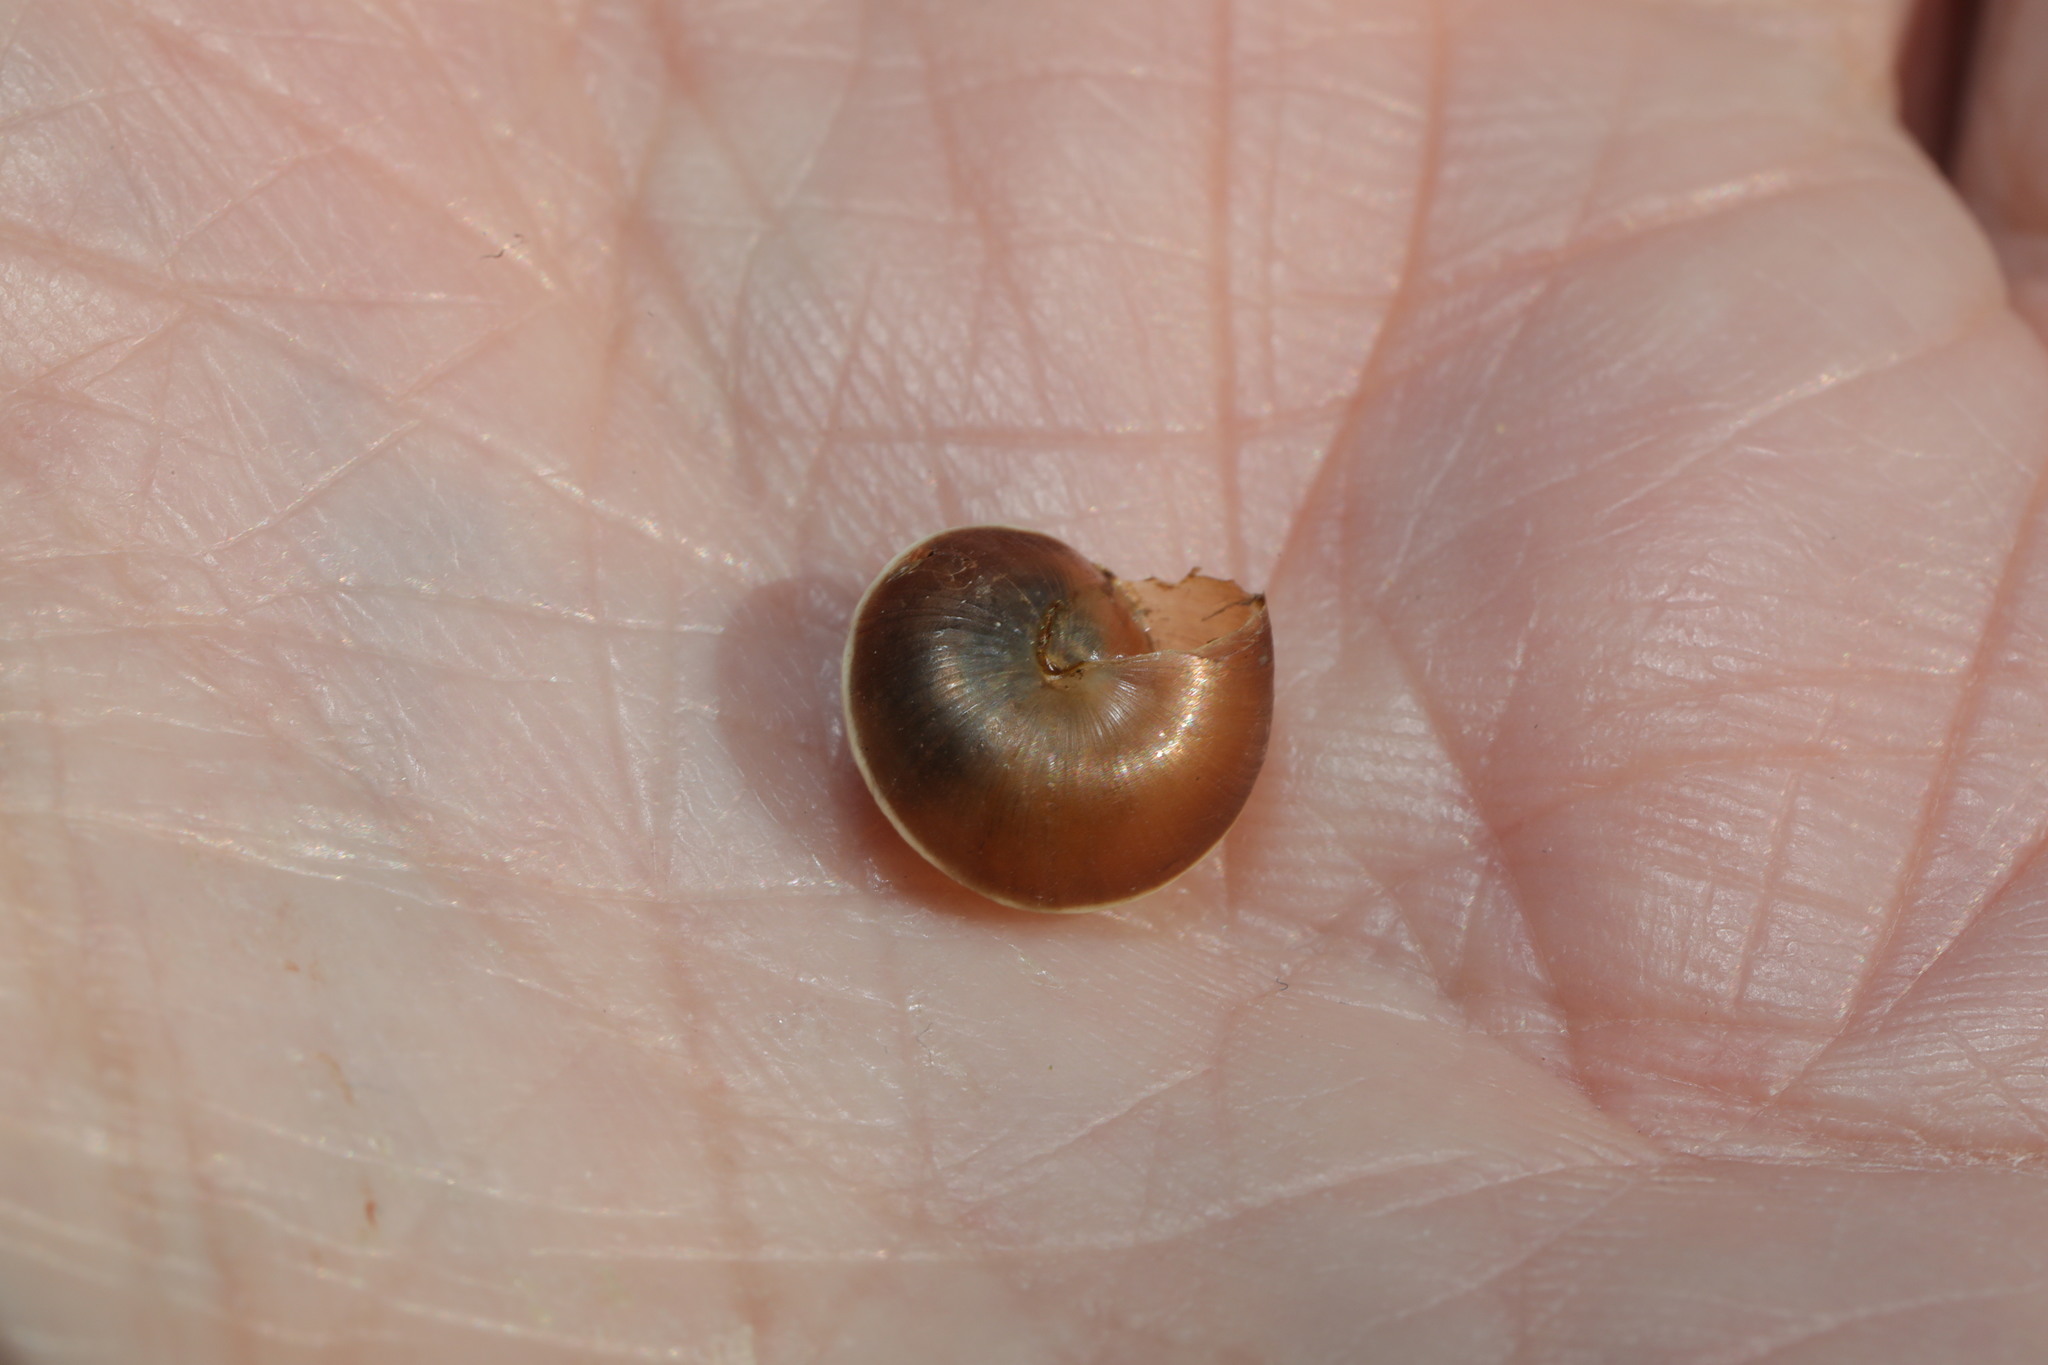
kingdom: Animalia
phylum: Mollusca
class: Gastropoda
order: Stylommatophora
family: Hygromiidae
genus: Hygromia
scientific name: Hygromia cinctella
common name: Girdled snail
